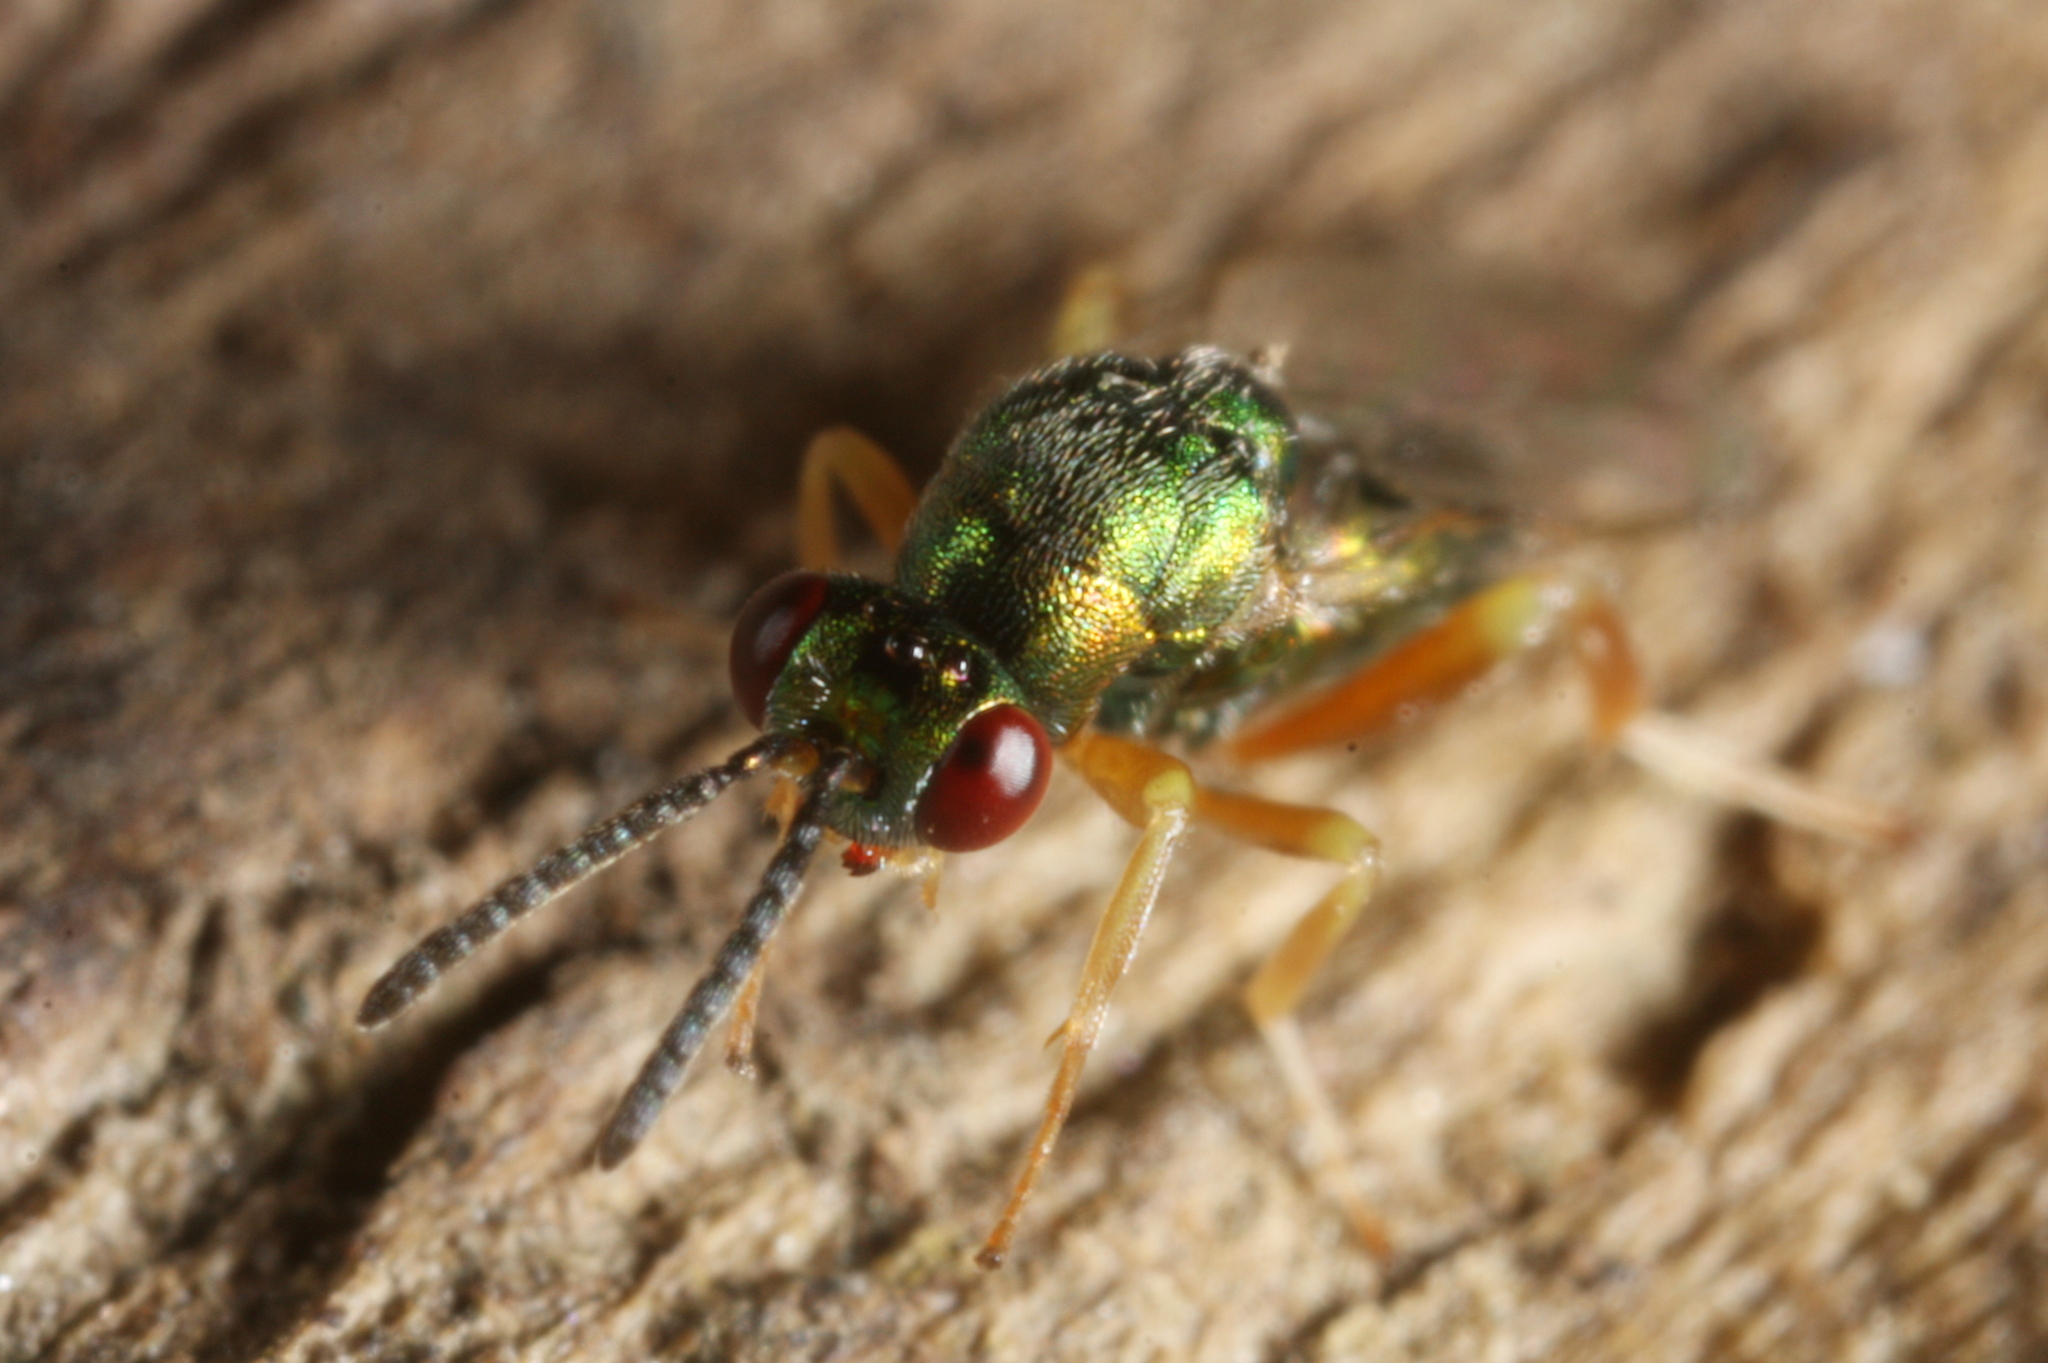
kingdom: Animalia
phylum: Arthropoda
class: Insecta
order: Hymenoptera
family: Torymidae
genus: Torymus
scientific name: Torymus rubi
